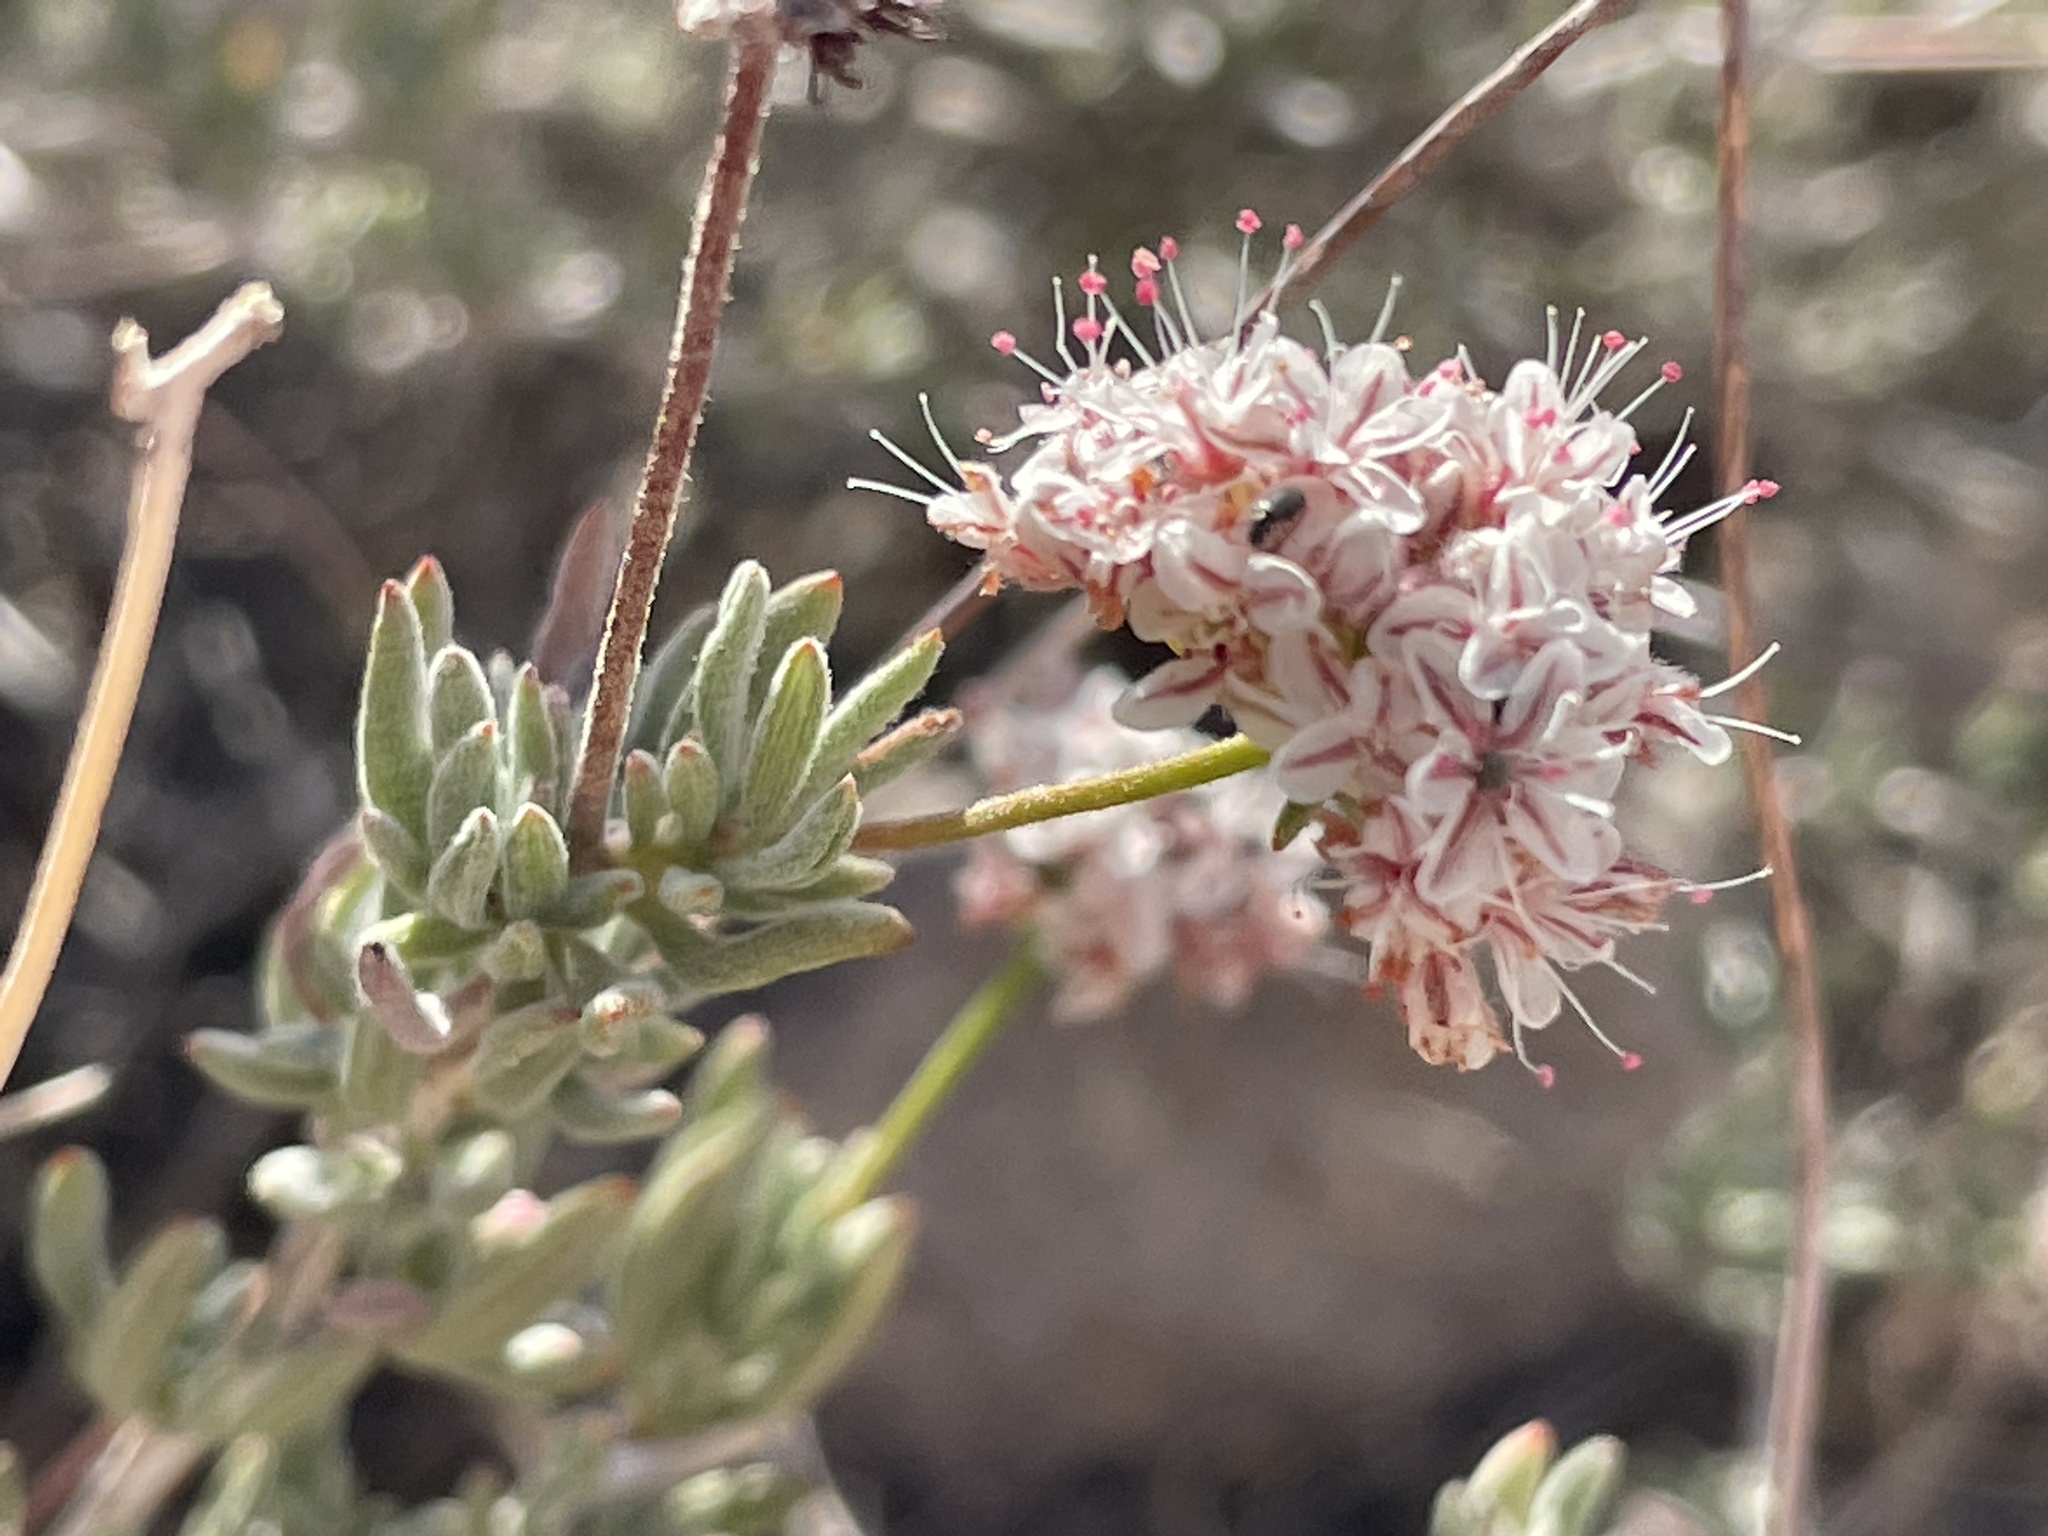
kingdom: Plantae
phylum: Tracheophyta
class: Magnoliopsida
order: Caryophyllales
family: Polygonaceae
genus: Eriogonum
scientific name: Eriogonum fasciculatum
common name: California wild buckwheat
